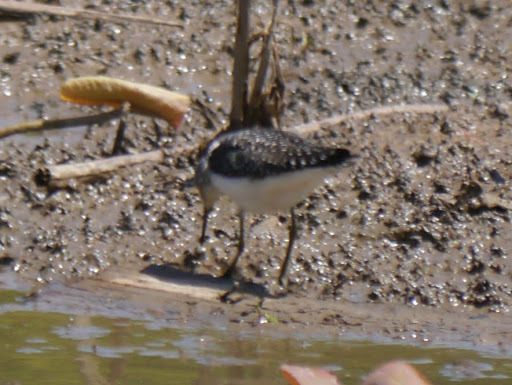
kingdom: Animalia
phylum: Chordata
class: Aves
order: Charadriiformes
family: Scolopacidae
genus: Tringa
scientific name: Tringa solitaria
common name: Solitary sandpiper
